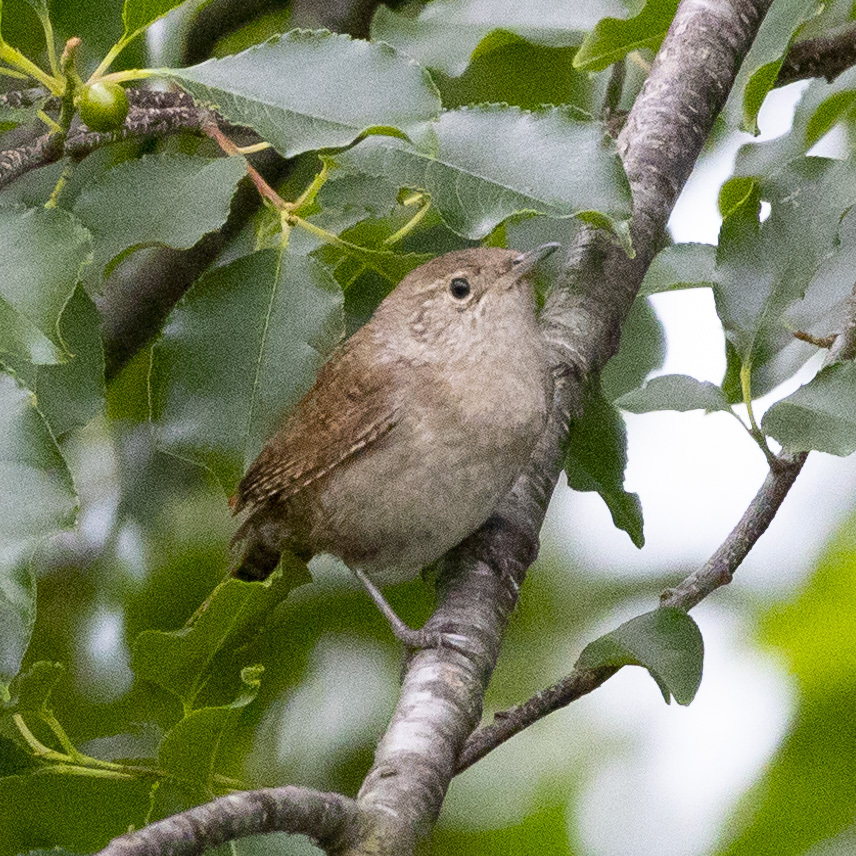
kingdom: Animalia
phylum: Chordata
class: Aves
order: Passeriformes
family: Troglodytidae
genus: Troglodytes
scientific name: Troglodytes aedon
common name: House wren
